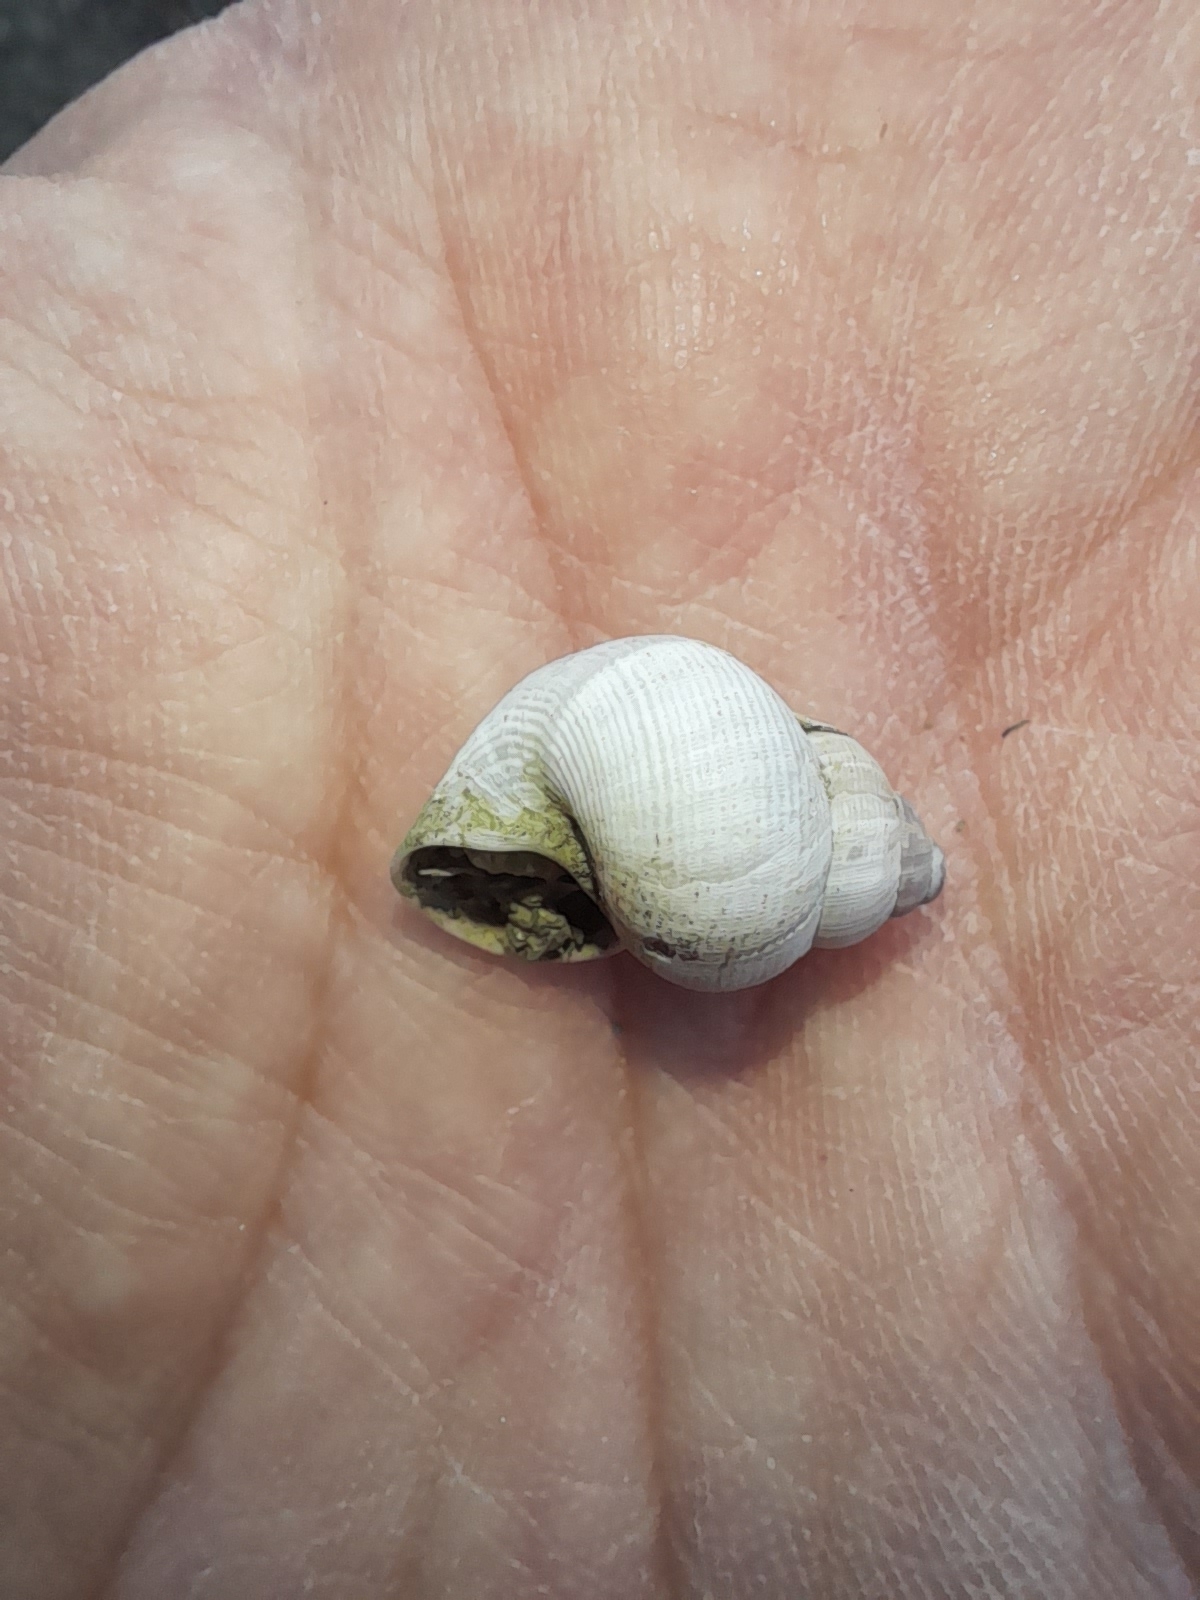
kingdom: Animalia
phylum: Mollusca
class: Gastropoda
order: Littorinimorpha
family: Pomatiidae
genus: Pomatias
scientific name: Pomatias elegans
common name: Red-mouthed snail
